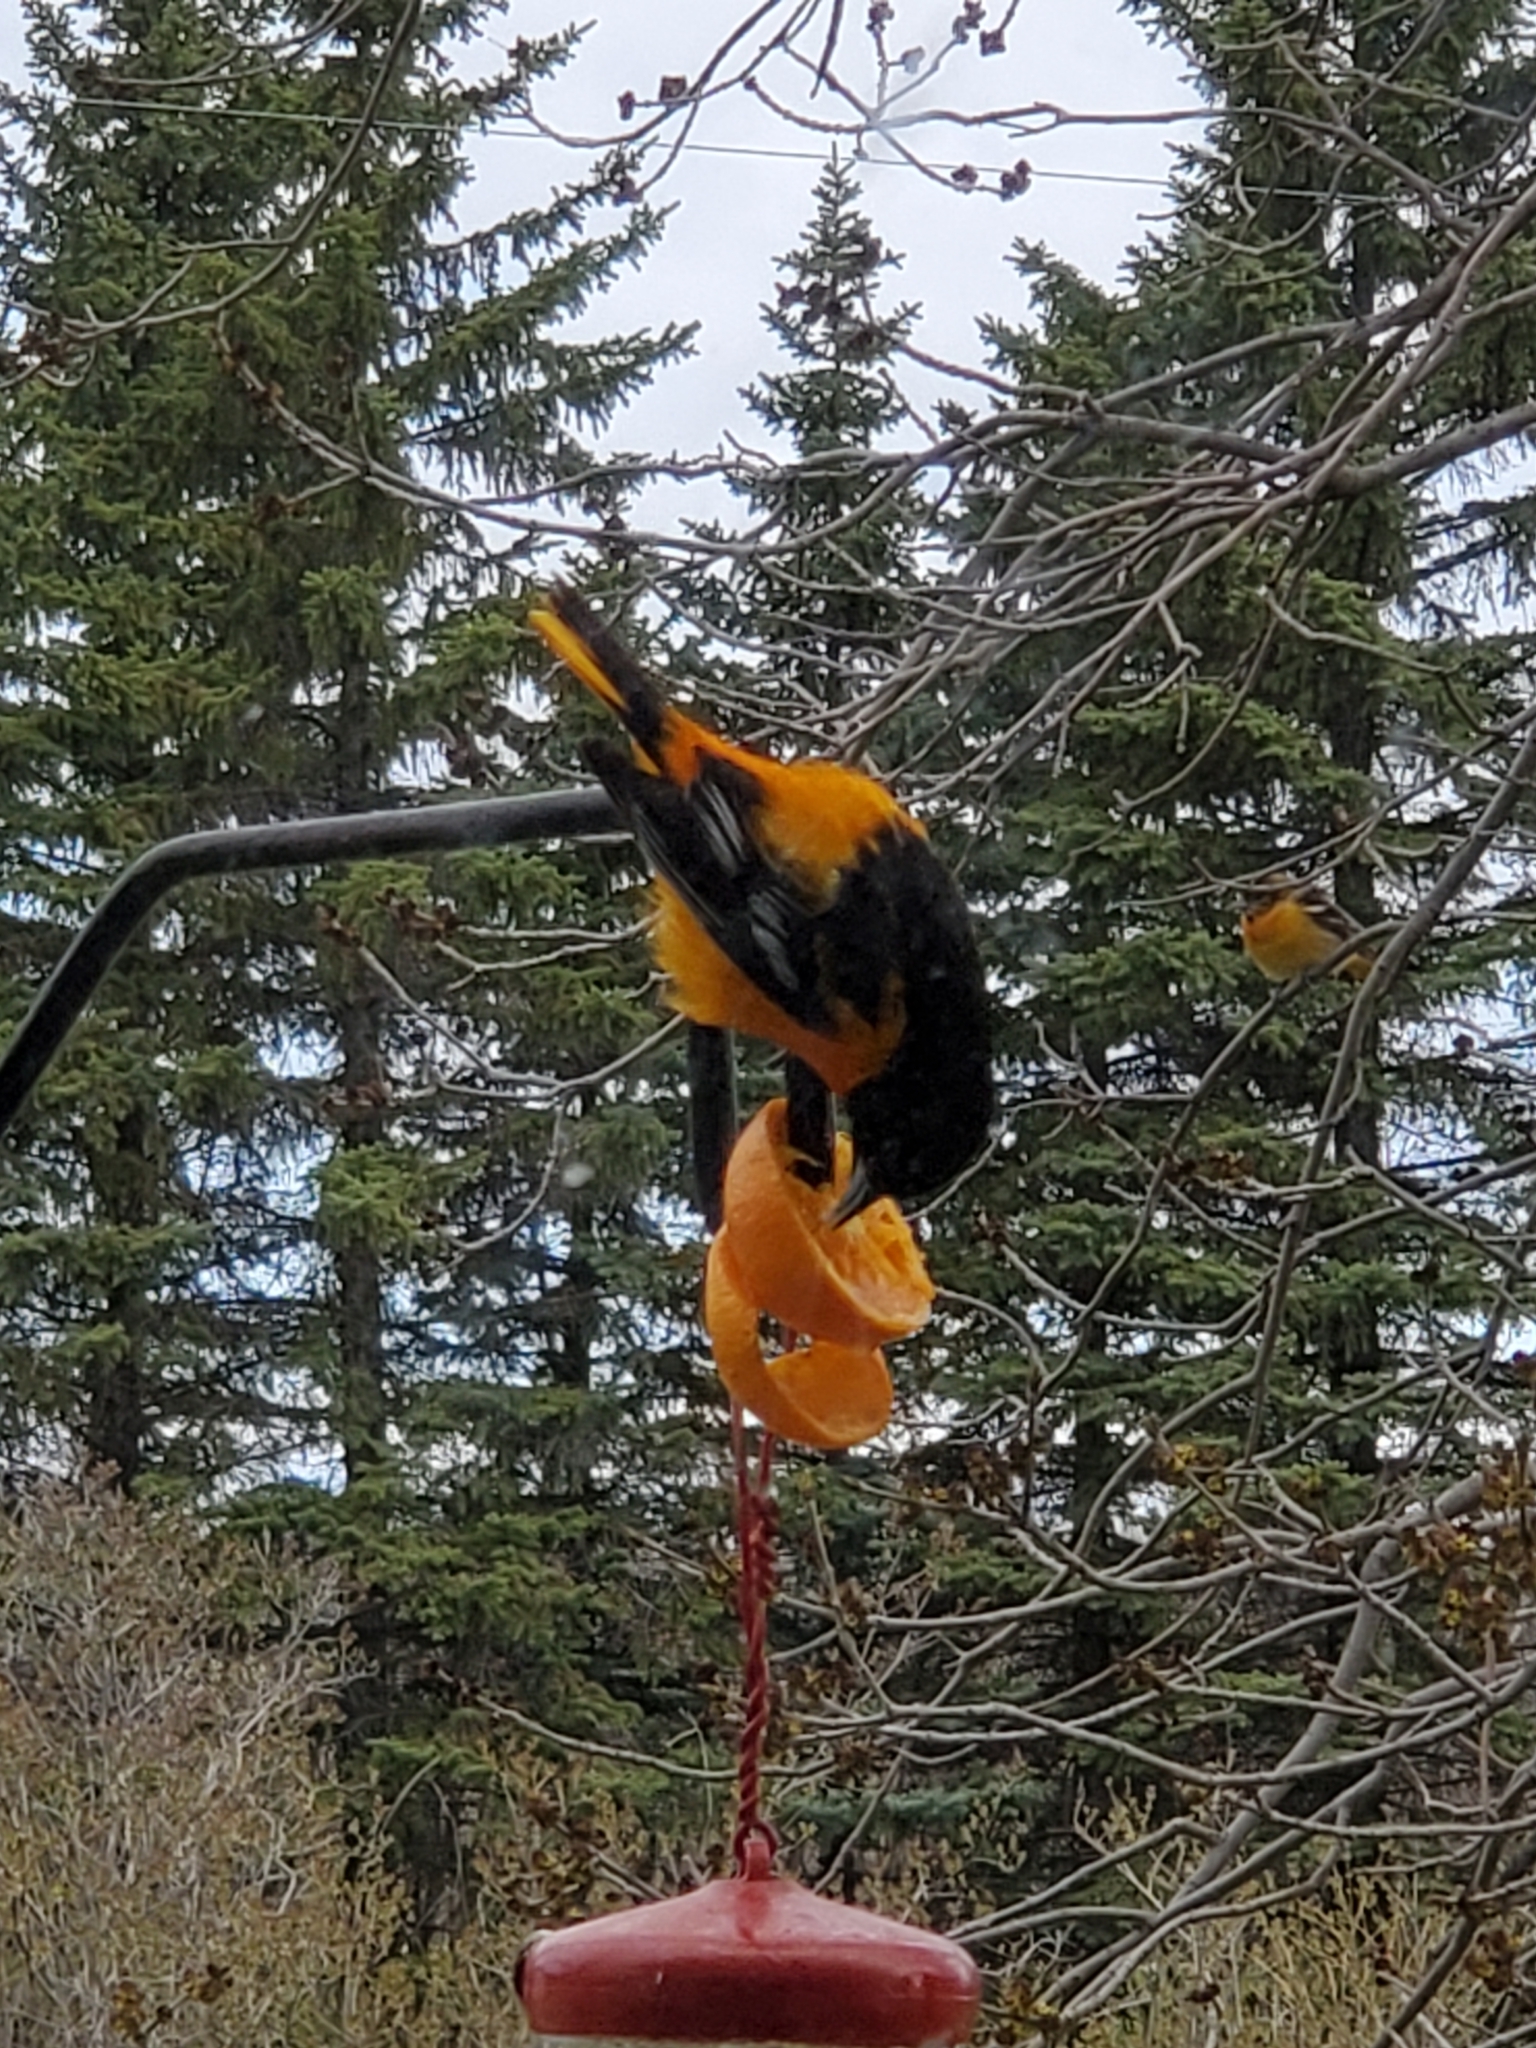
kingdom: Animalia
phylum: Chordata
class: Aves
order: Passeriformes
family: Icteridae
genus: Icterus
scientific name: Icterus galbula
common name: Baltimore oriole
